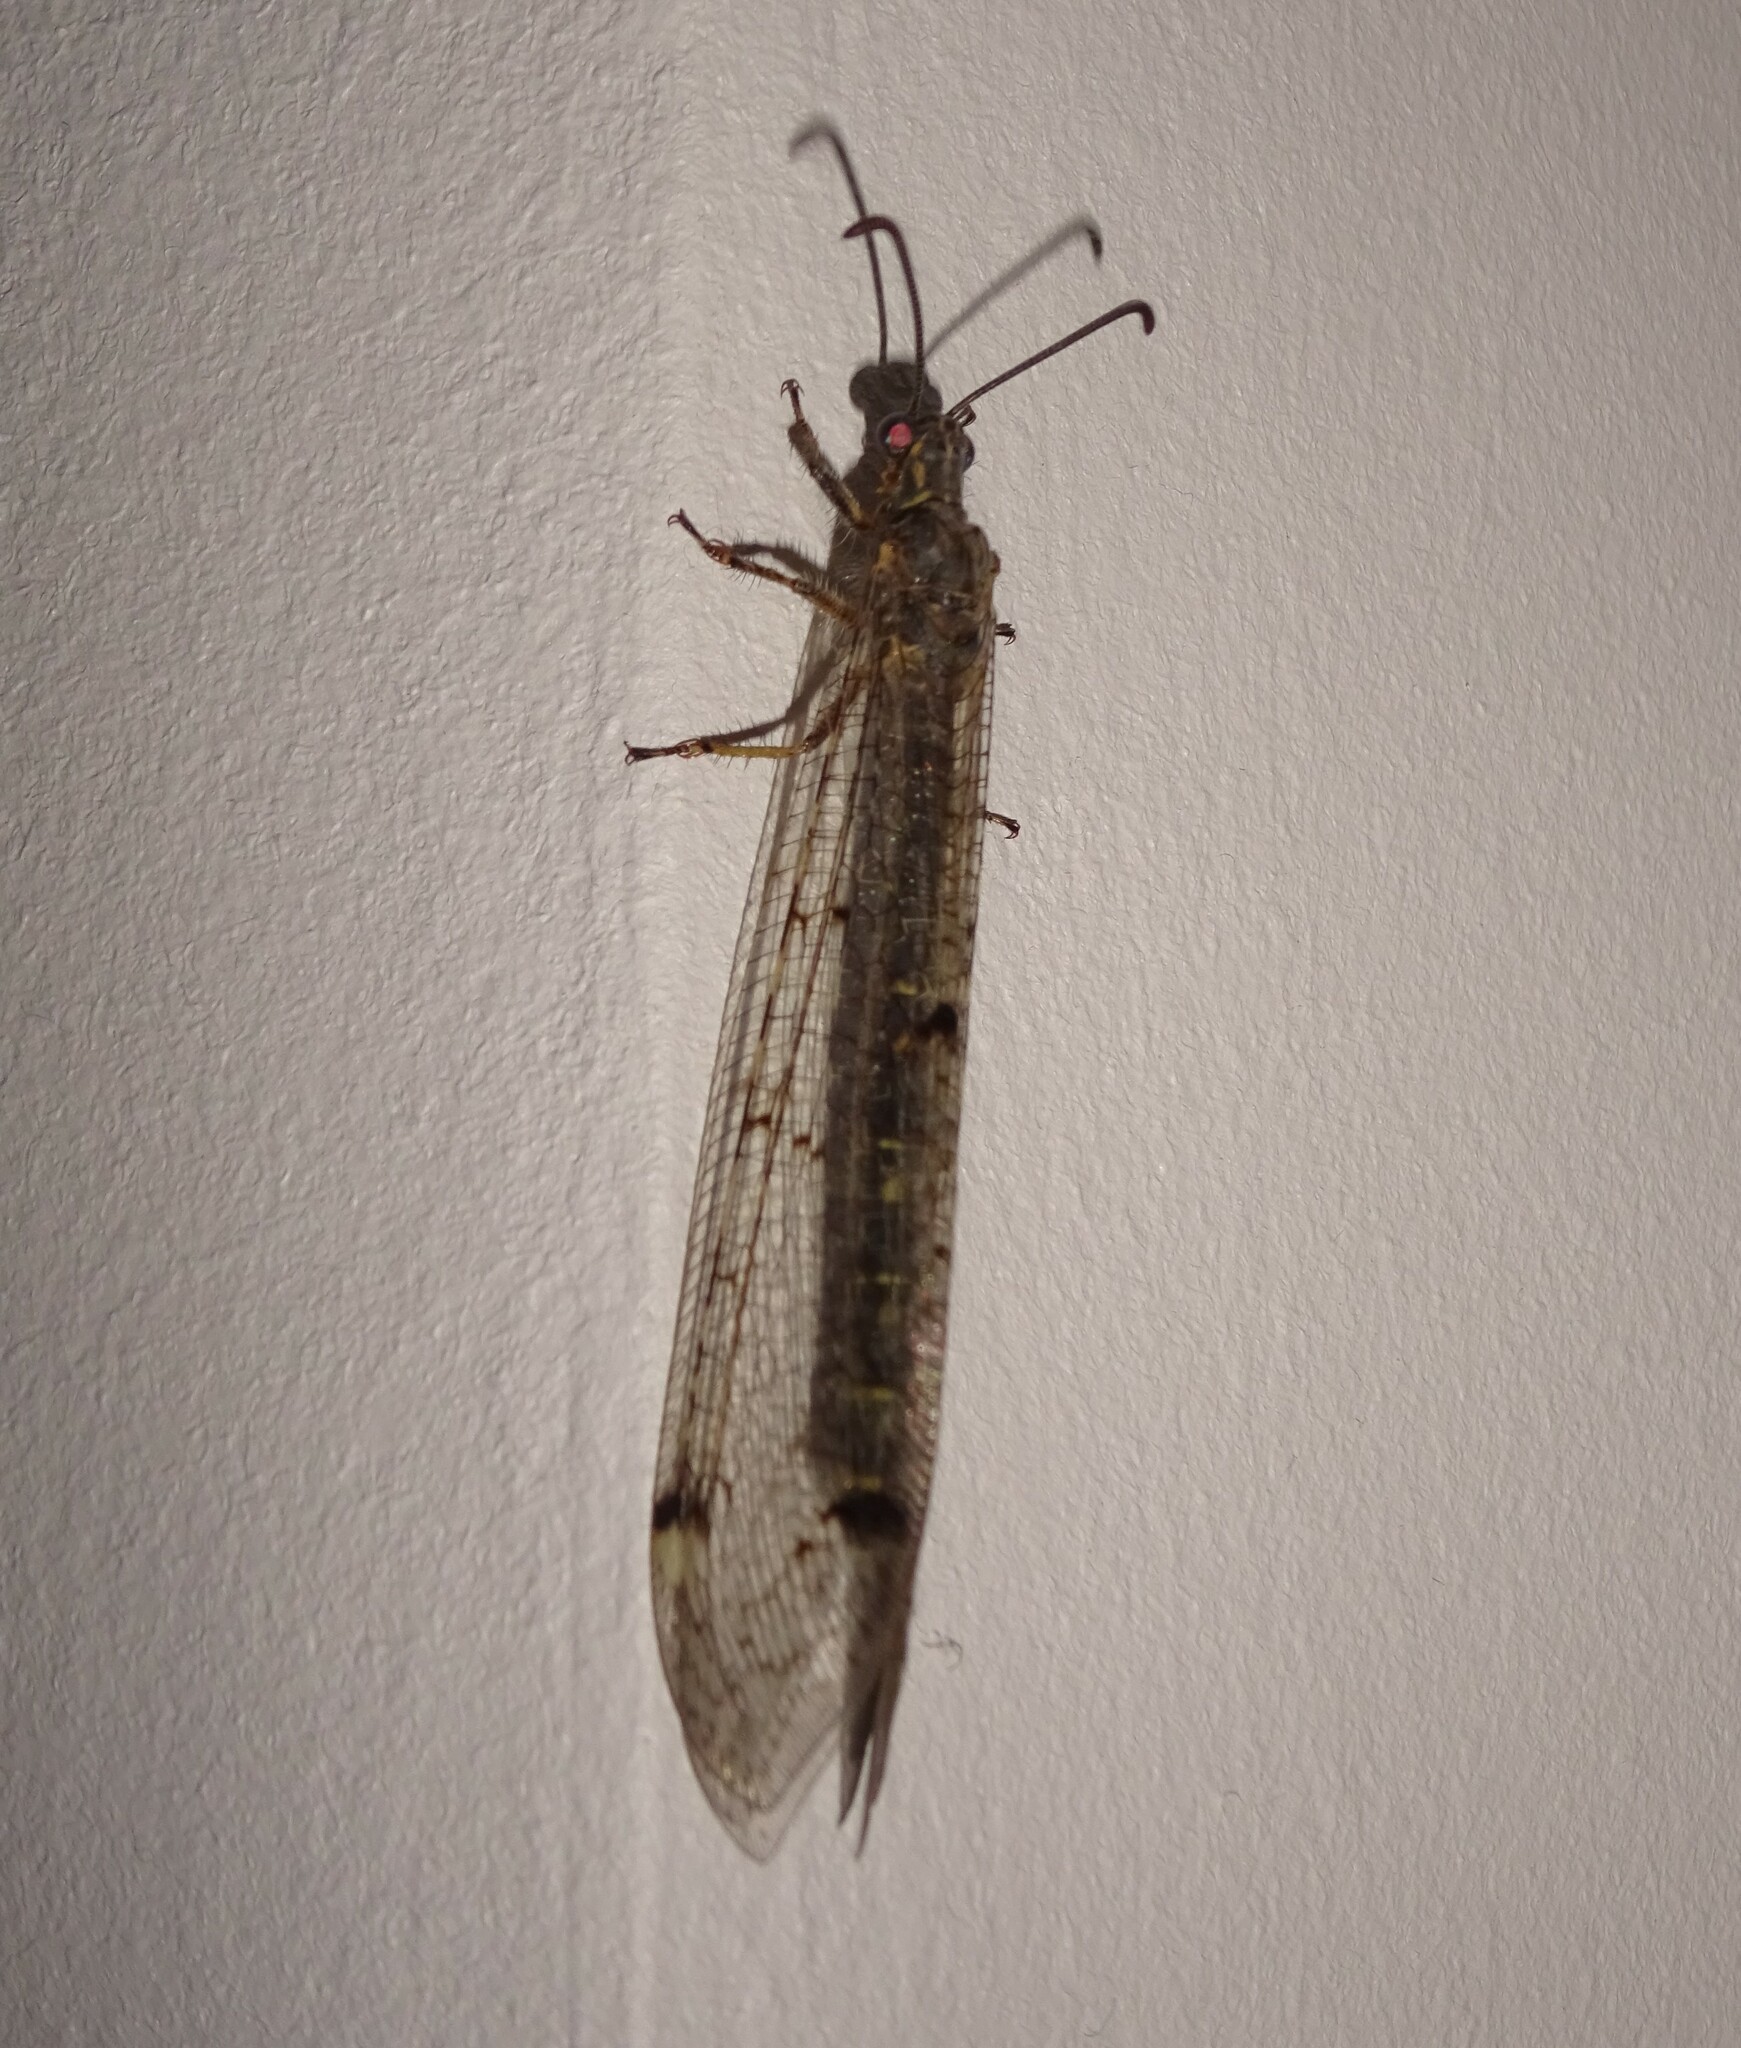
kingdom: Animalia
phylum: Arthropoda
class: Insecta
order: Neuroptera
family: Myrmeleontidae
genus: Distoleon
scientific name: Distoleon tetragrammicus
